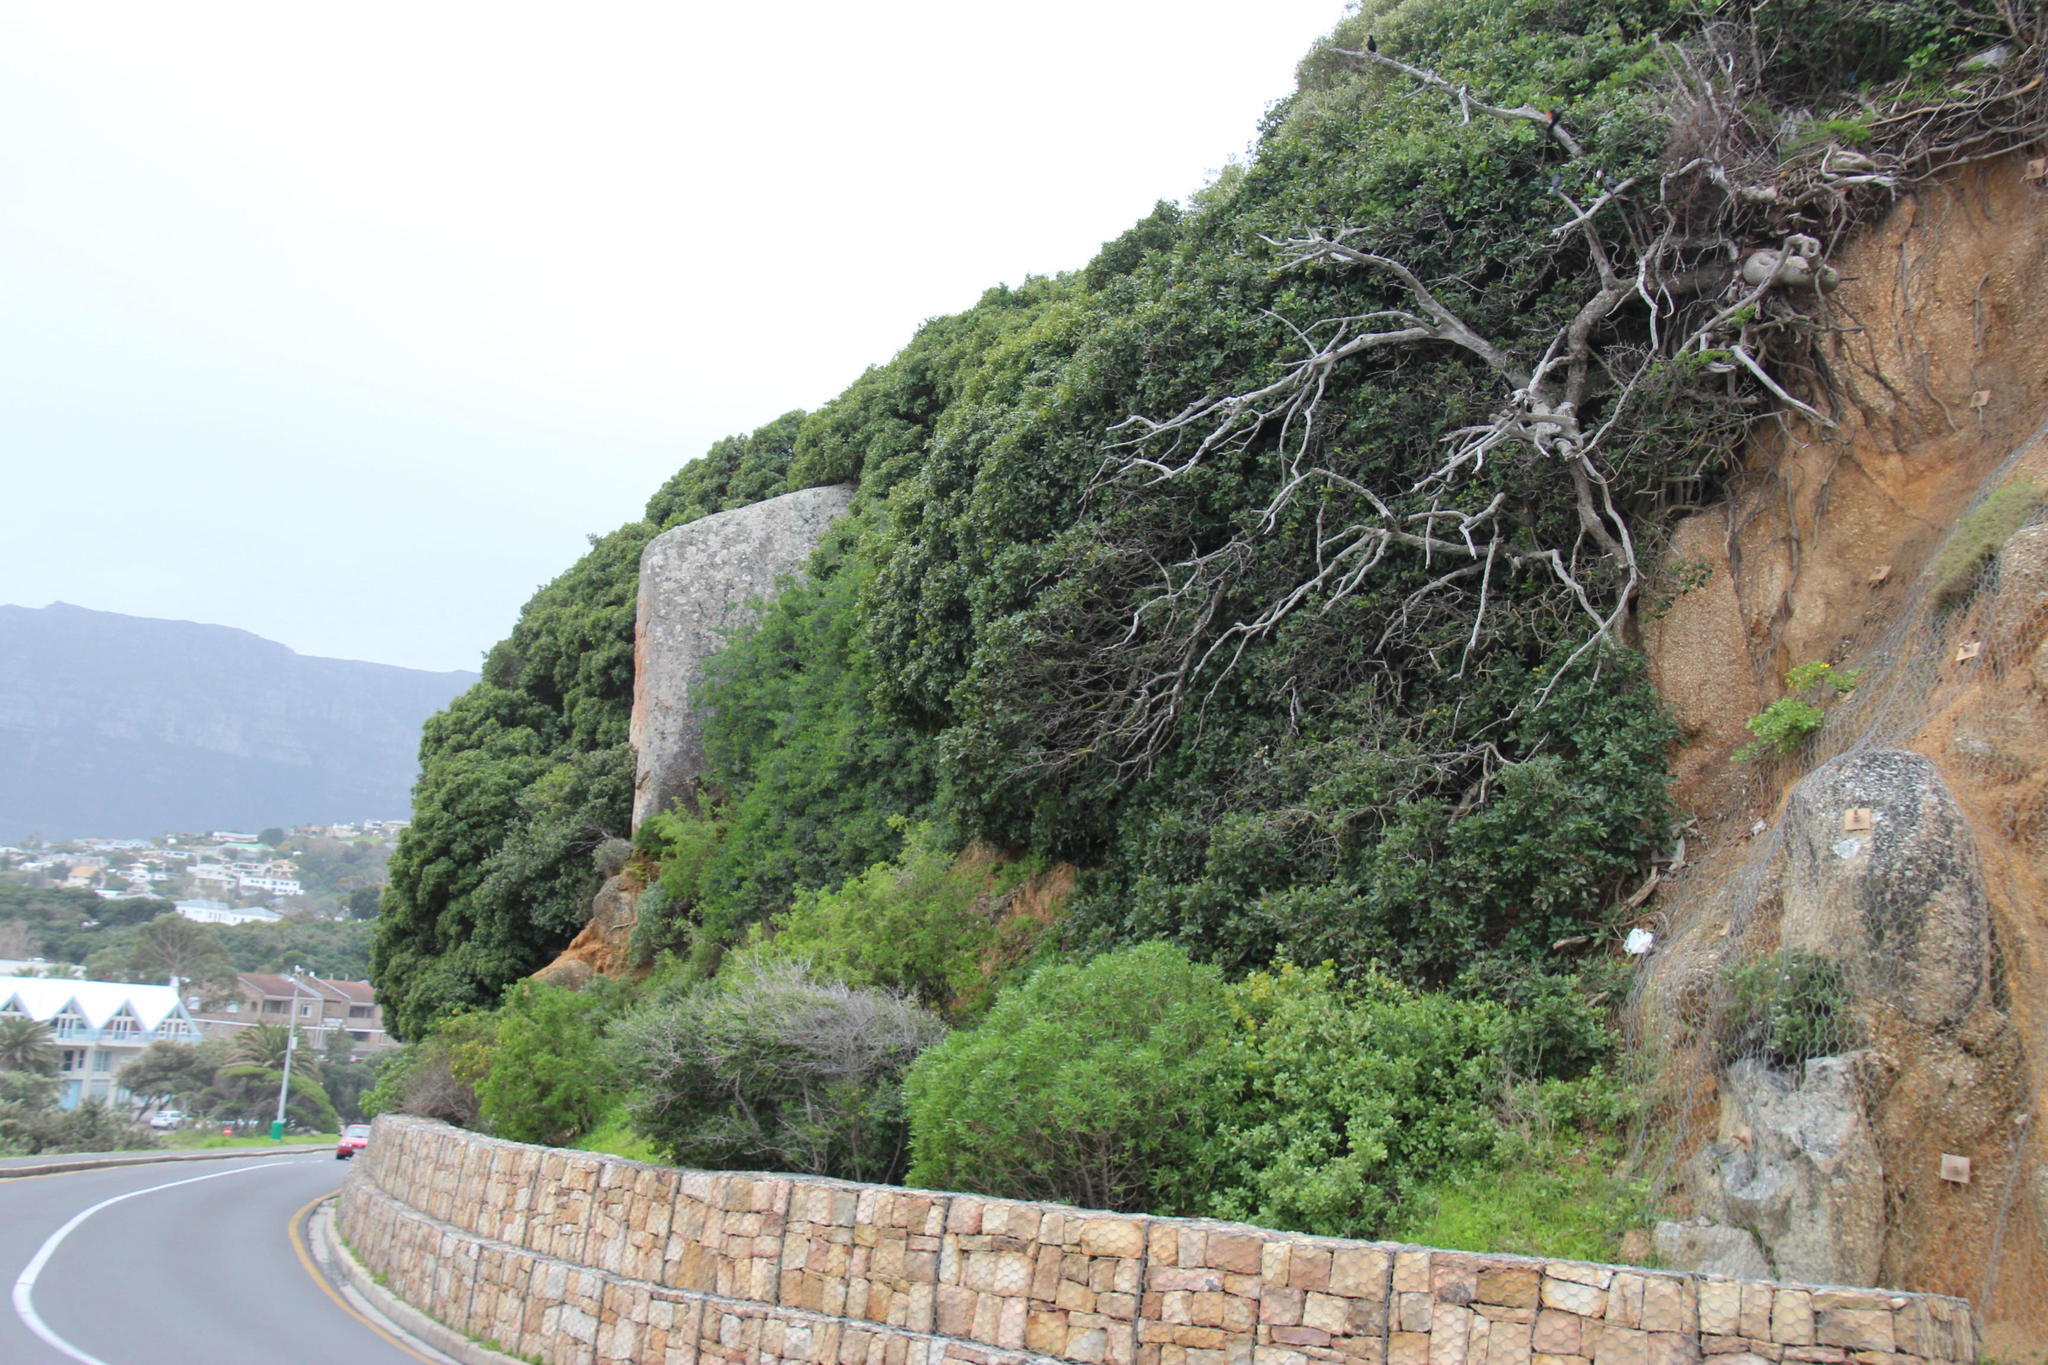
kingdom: Plantae
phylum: Tracheophyta
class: Magnoliopsida
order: Ericales
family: Sapotaceae
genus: Sideroxylon
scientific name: Sideroxylon inerme
